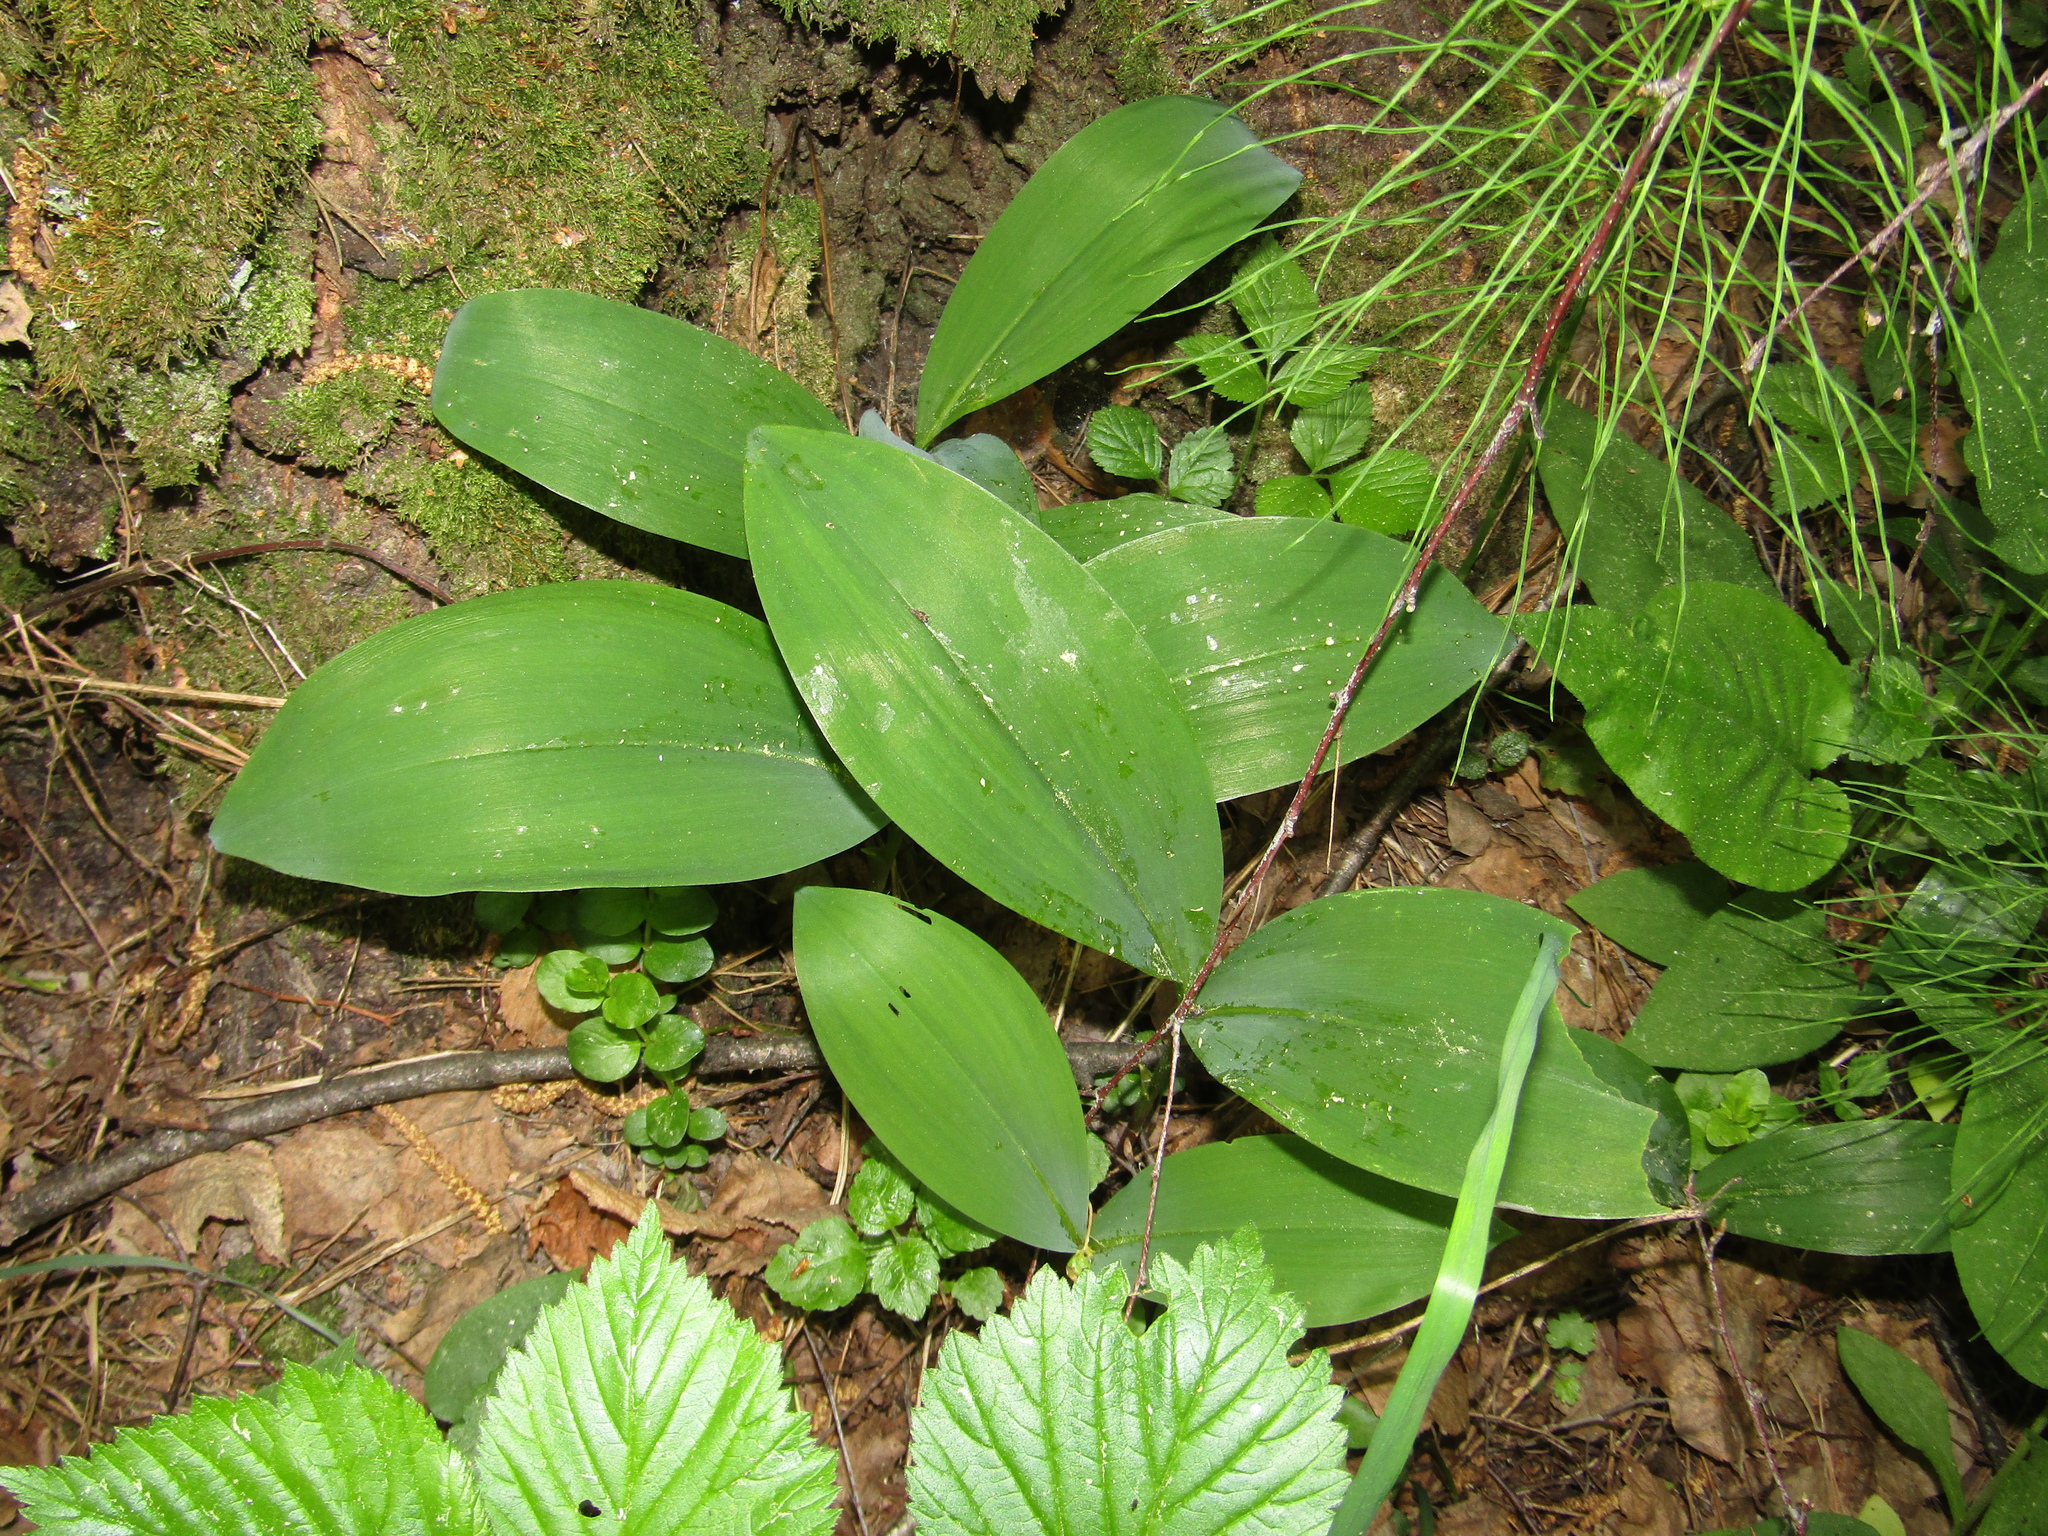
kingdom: Plantae
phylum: Tracheophyta
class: Liliopsida
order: Asparagales
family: Asparagaceae
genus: Convallaria
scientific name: Convallaria majalis
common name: Lily-of-the-valley
